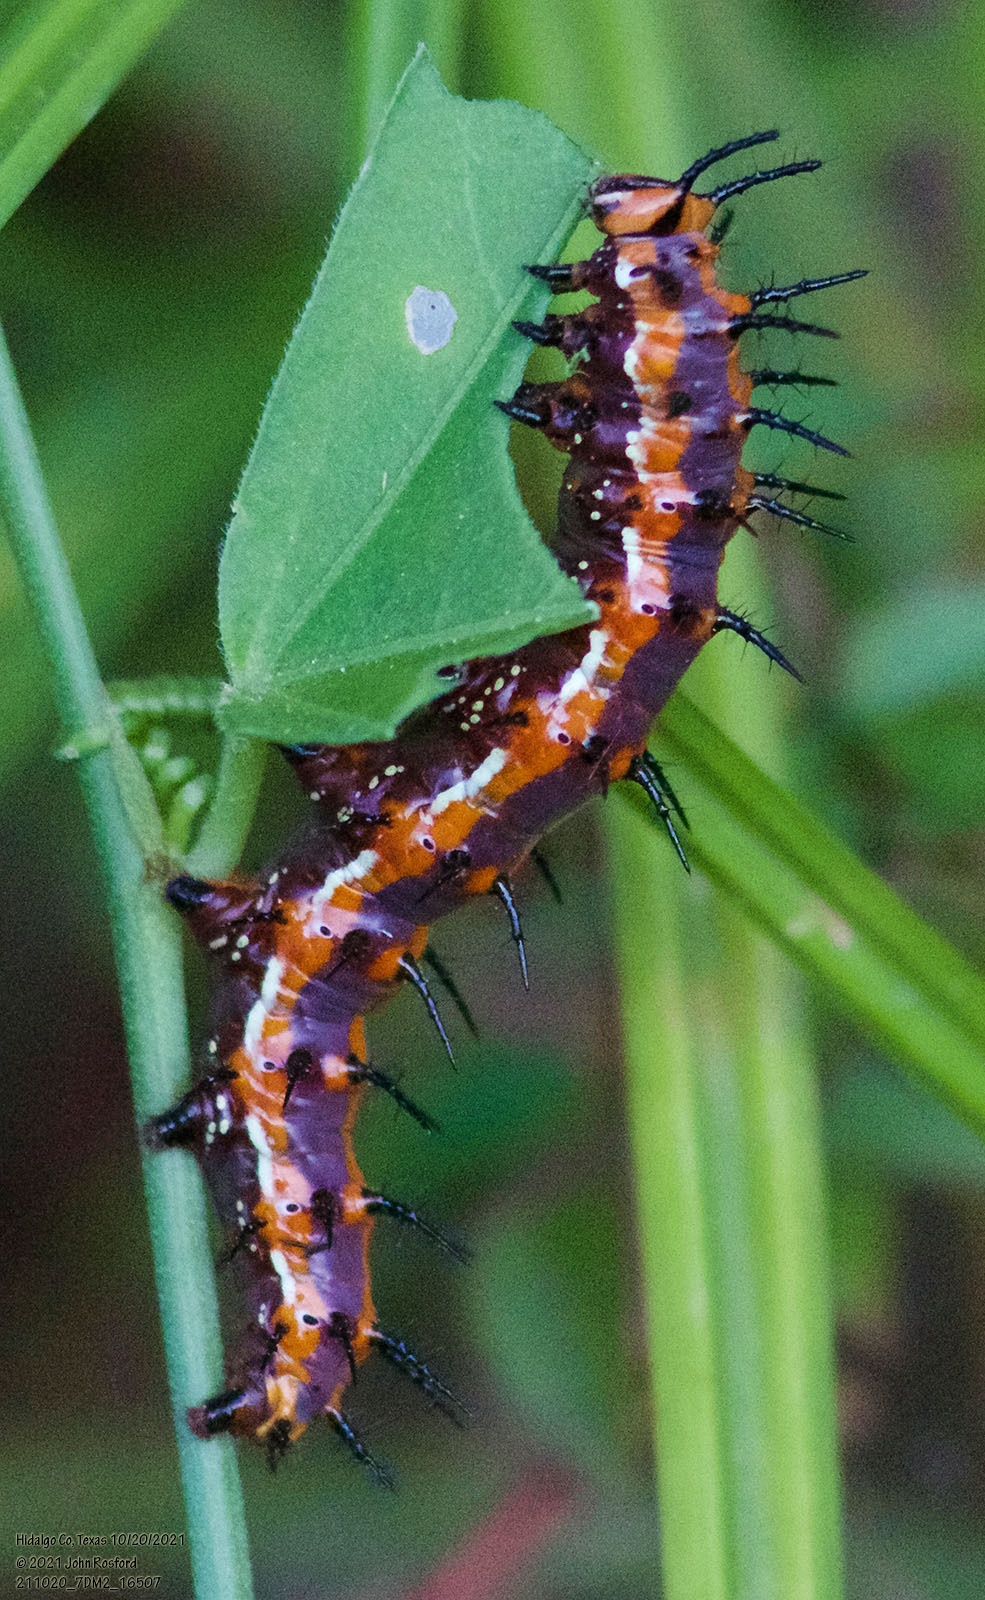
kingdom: Animalia
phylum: Arthropoda
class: Insecta
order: Lepidoptera
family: Nymphalidae
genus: Dione
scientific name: Dione vanillae
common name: Gulf fritillary
